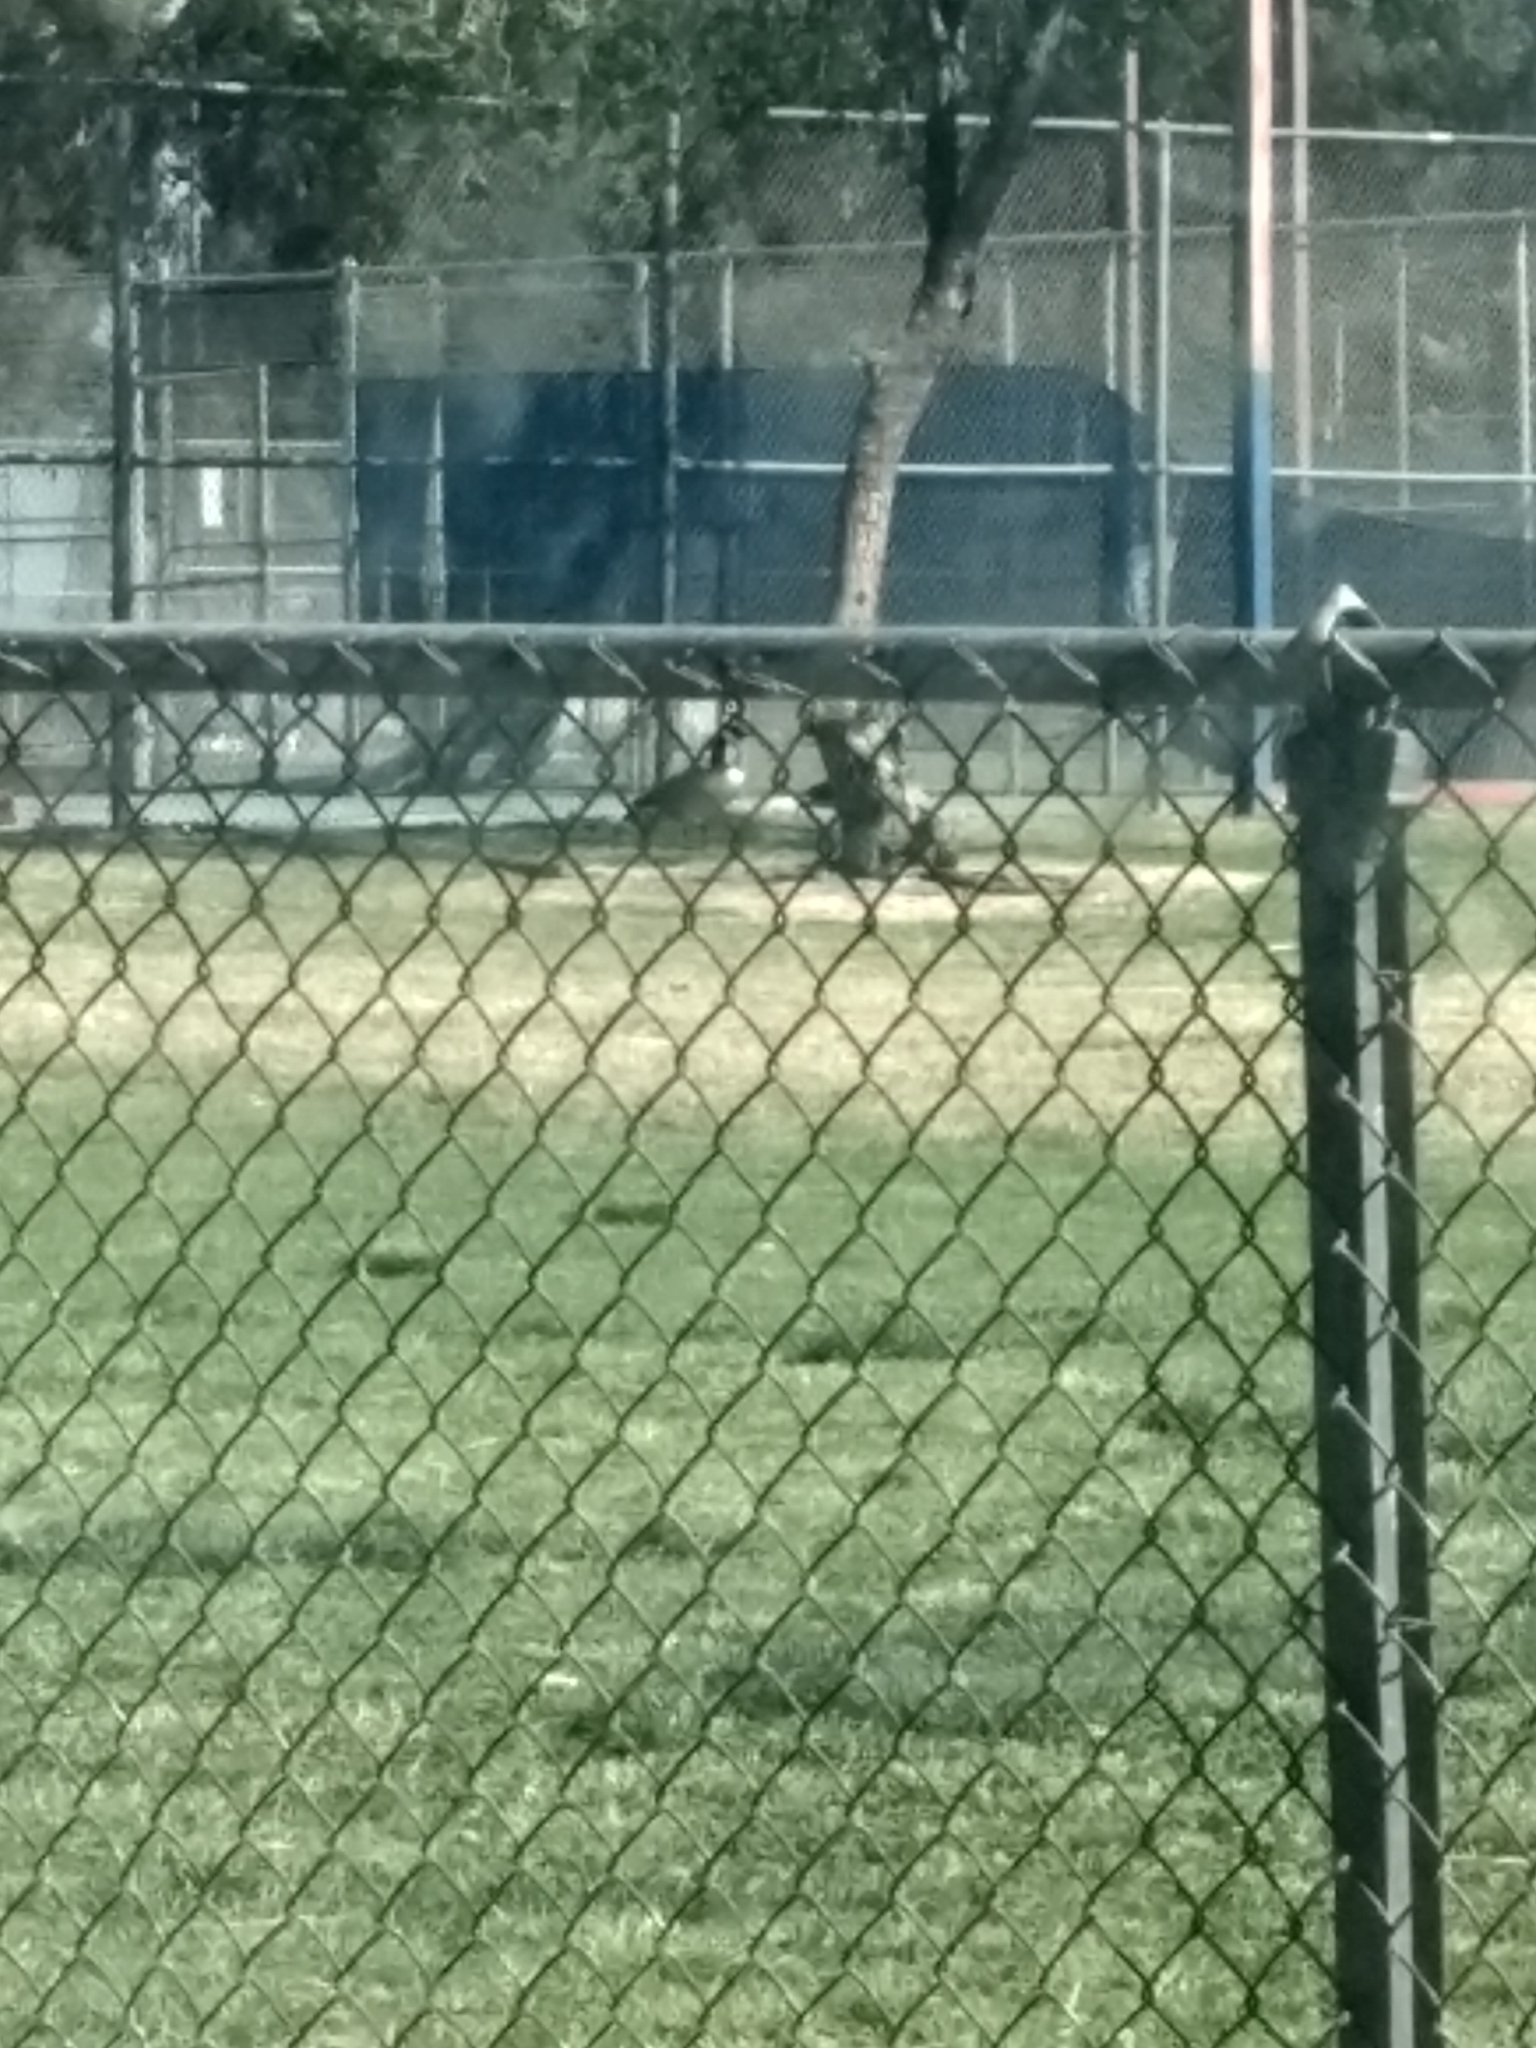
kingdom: Animalia
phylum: Chordata
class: Aves
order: Anseriformes
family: Anatidae
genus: Branta
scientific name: Branta canadensis
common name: Canada goose
